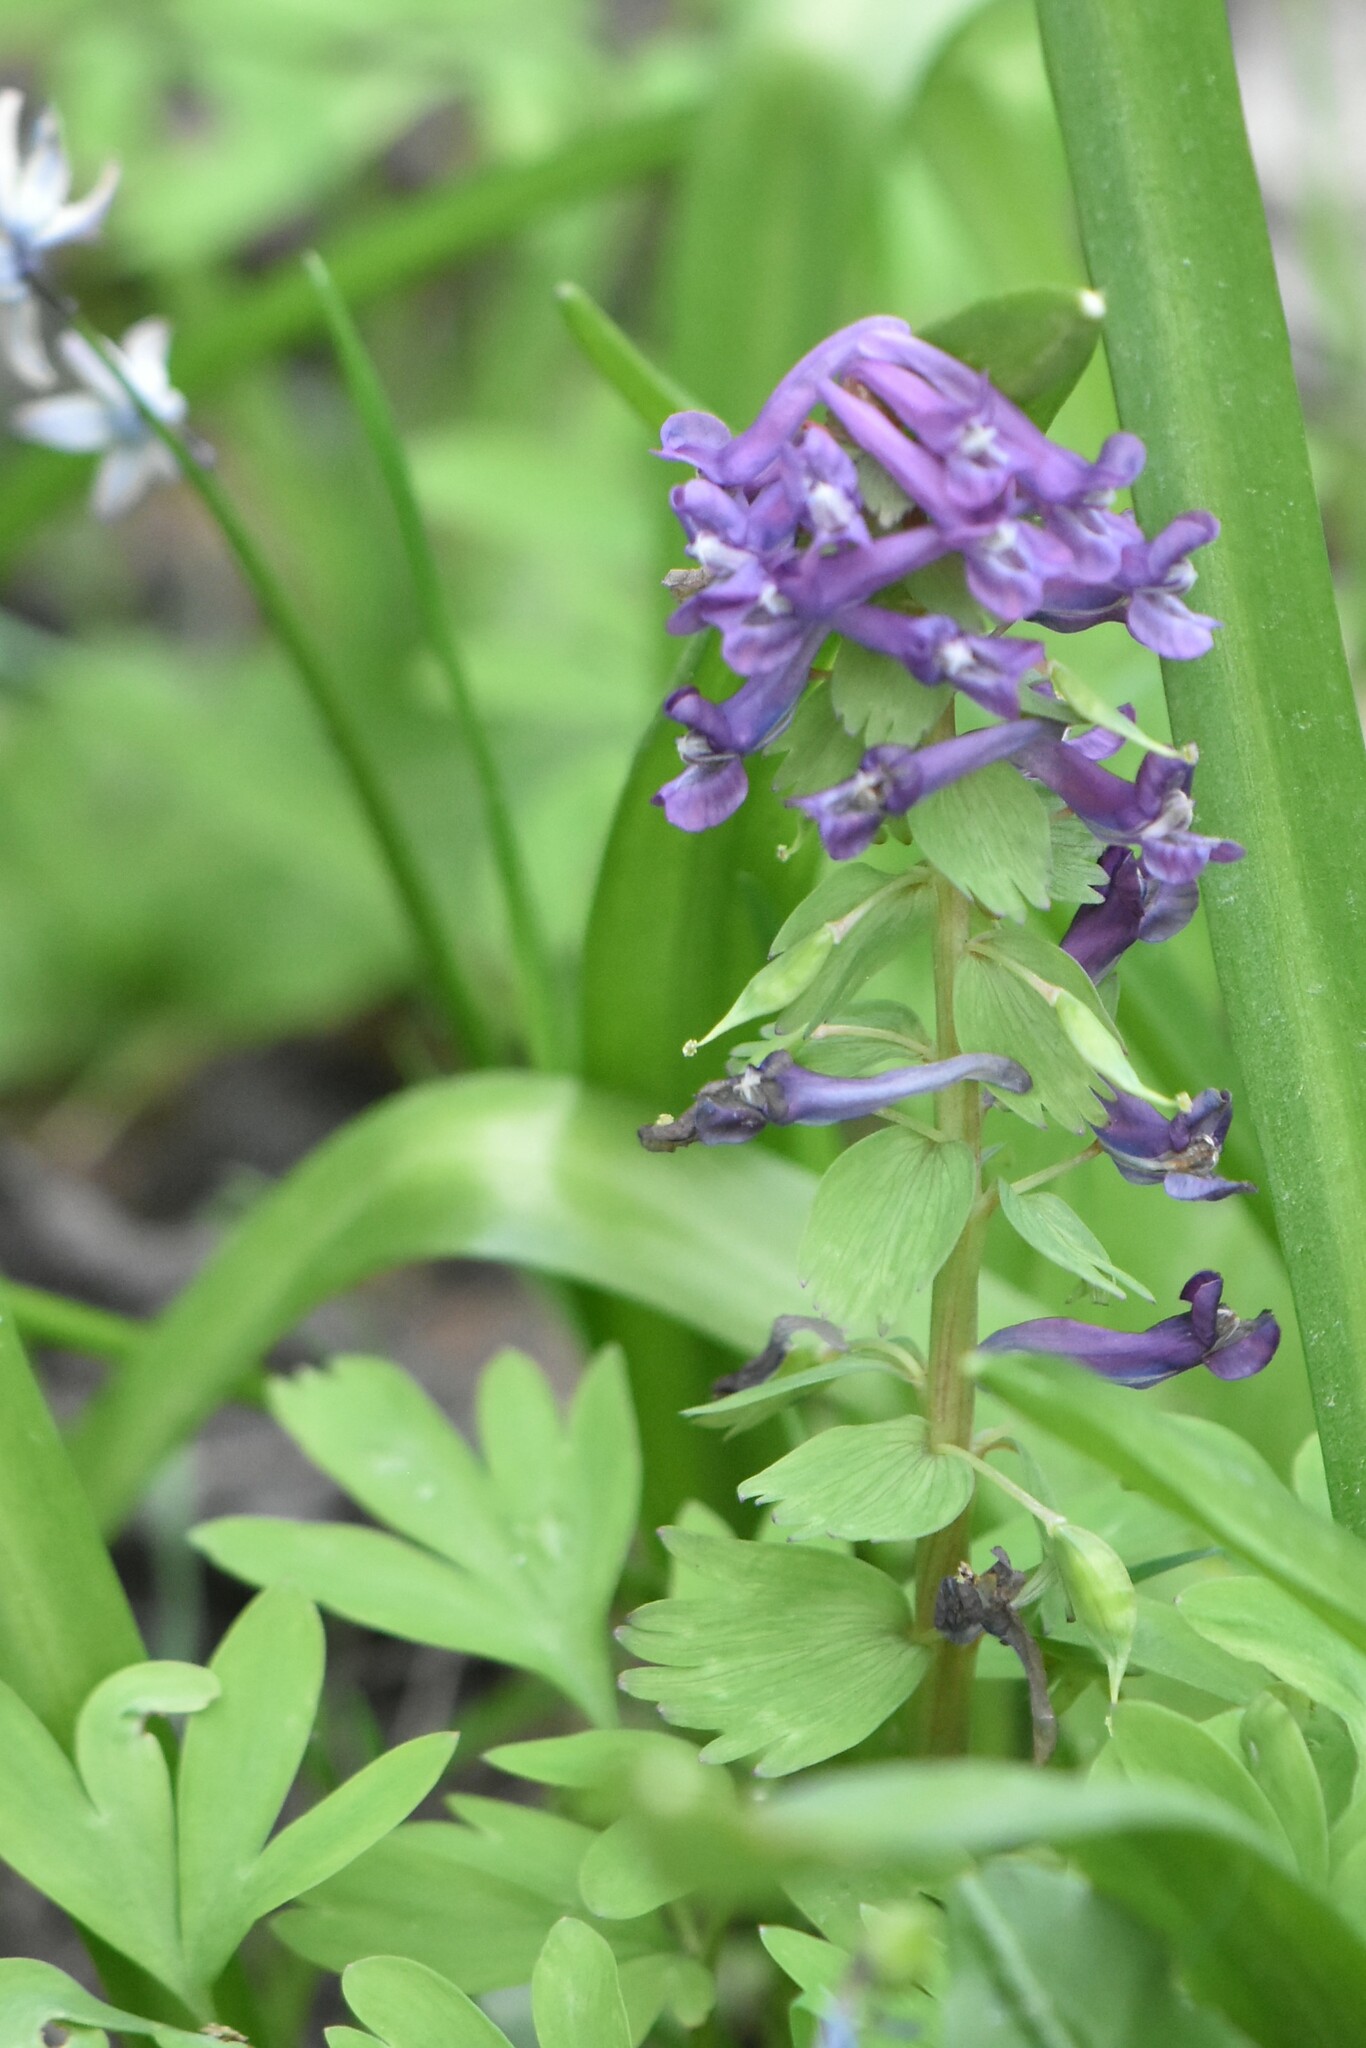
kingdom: Plantae
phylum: Tracheophyta
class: Magnoliopsida
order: Ranunculales
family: Papaveraceae
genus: Corydalis
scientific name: Corydalis solida
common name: Bird-in-a-bush
